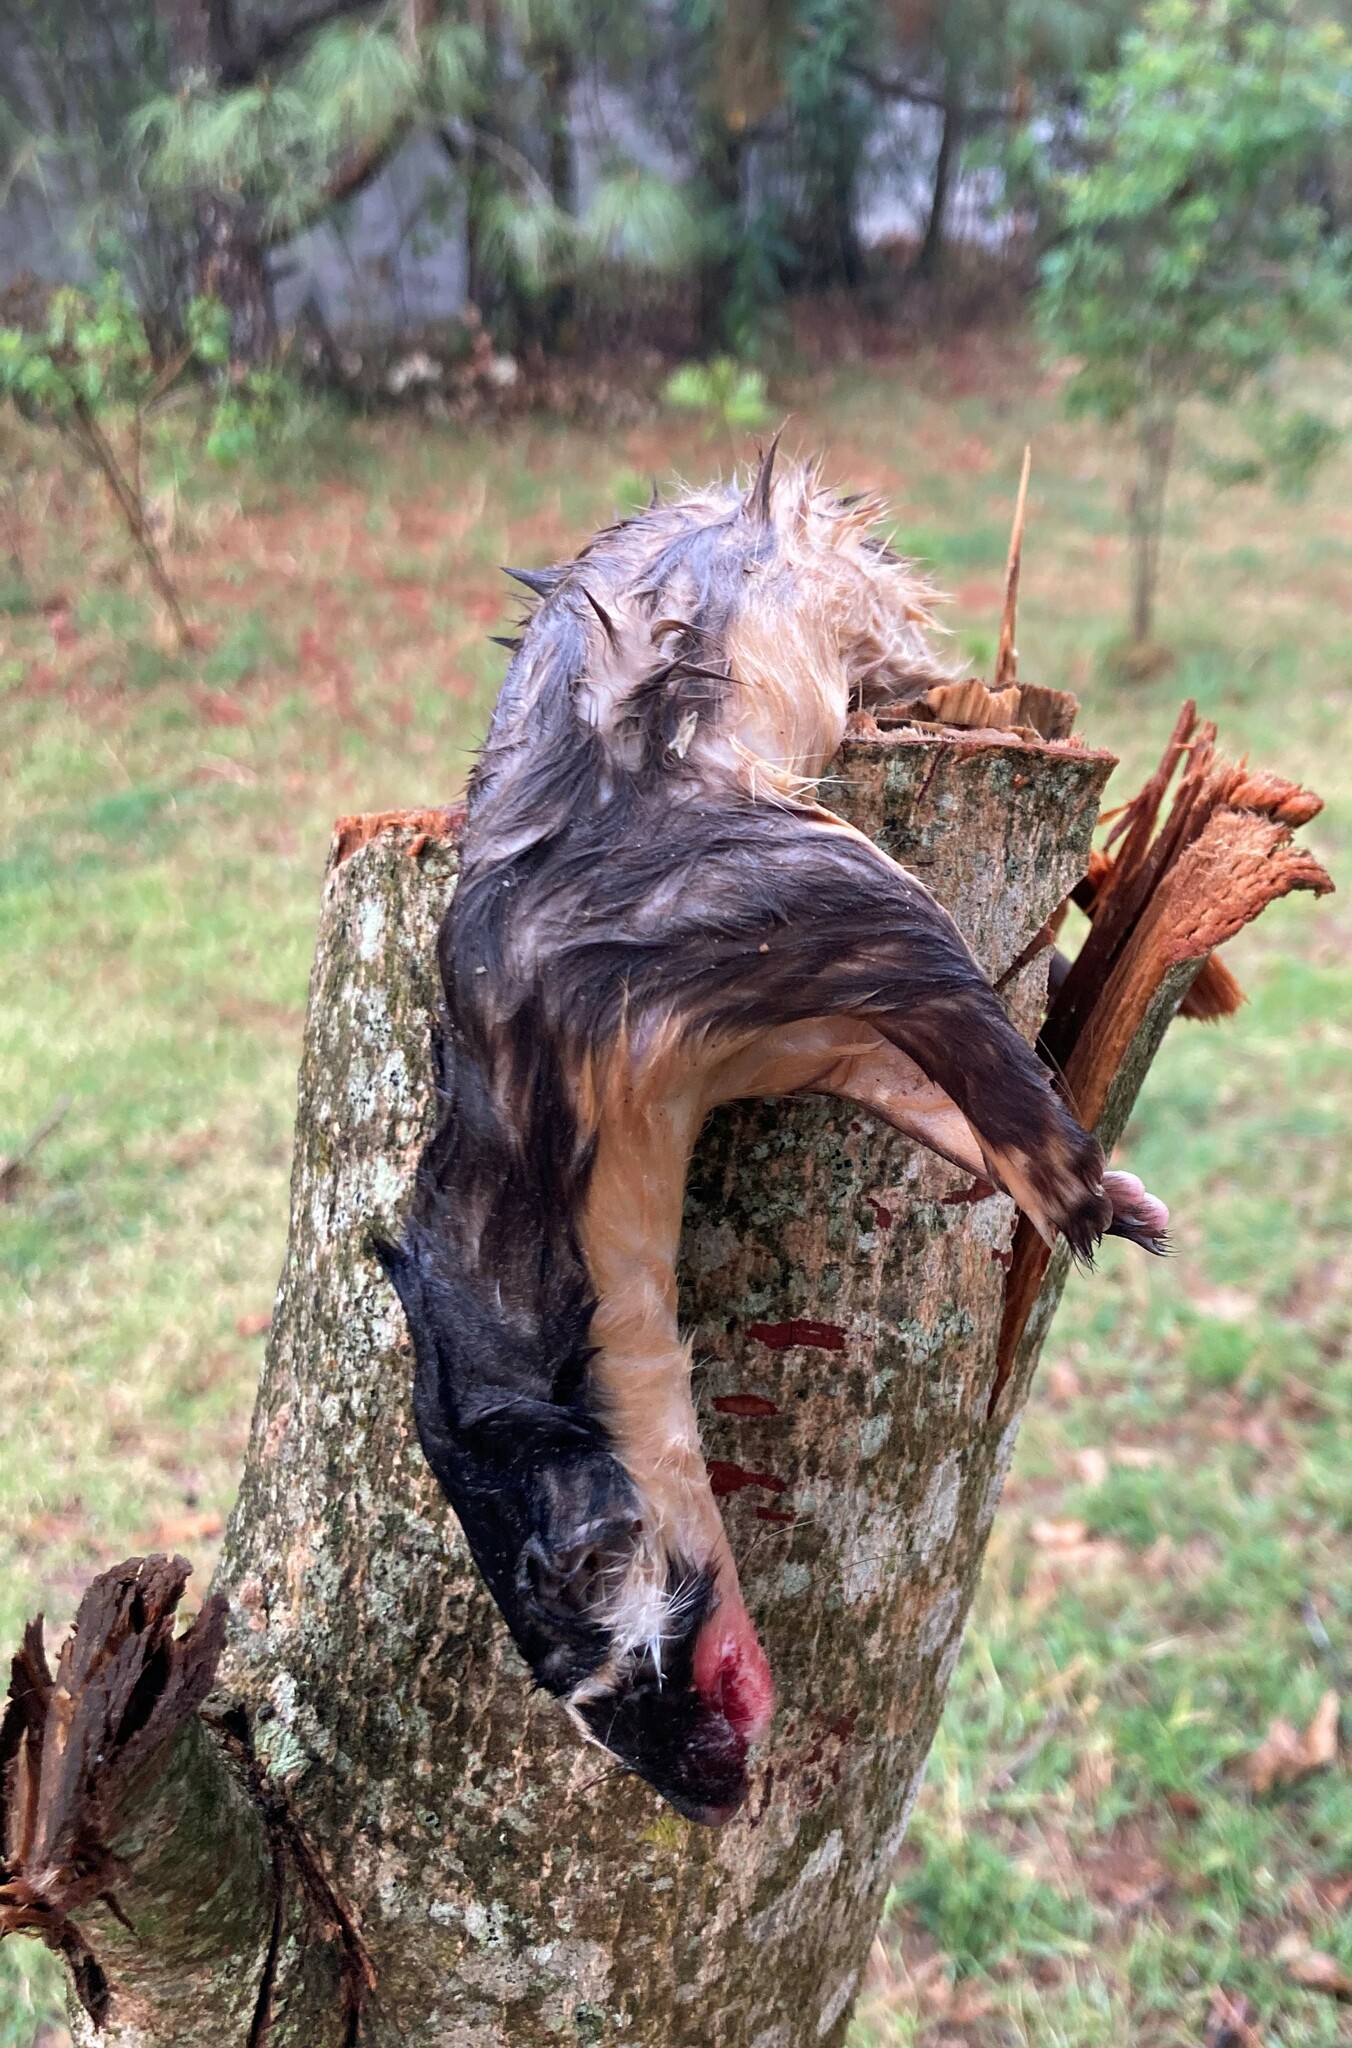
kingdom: Animalia
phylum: Chordata
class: Mammalia
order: Carnivora
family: Mustelidae
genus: Mustela
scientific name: Mustela
